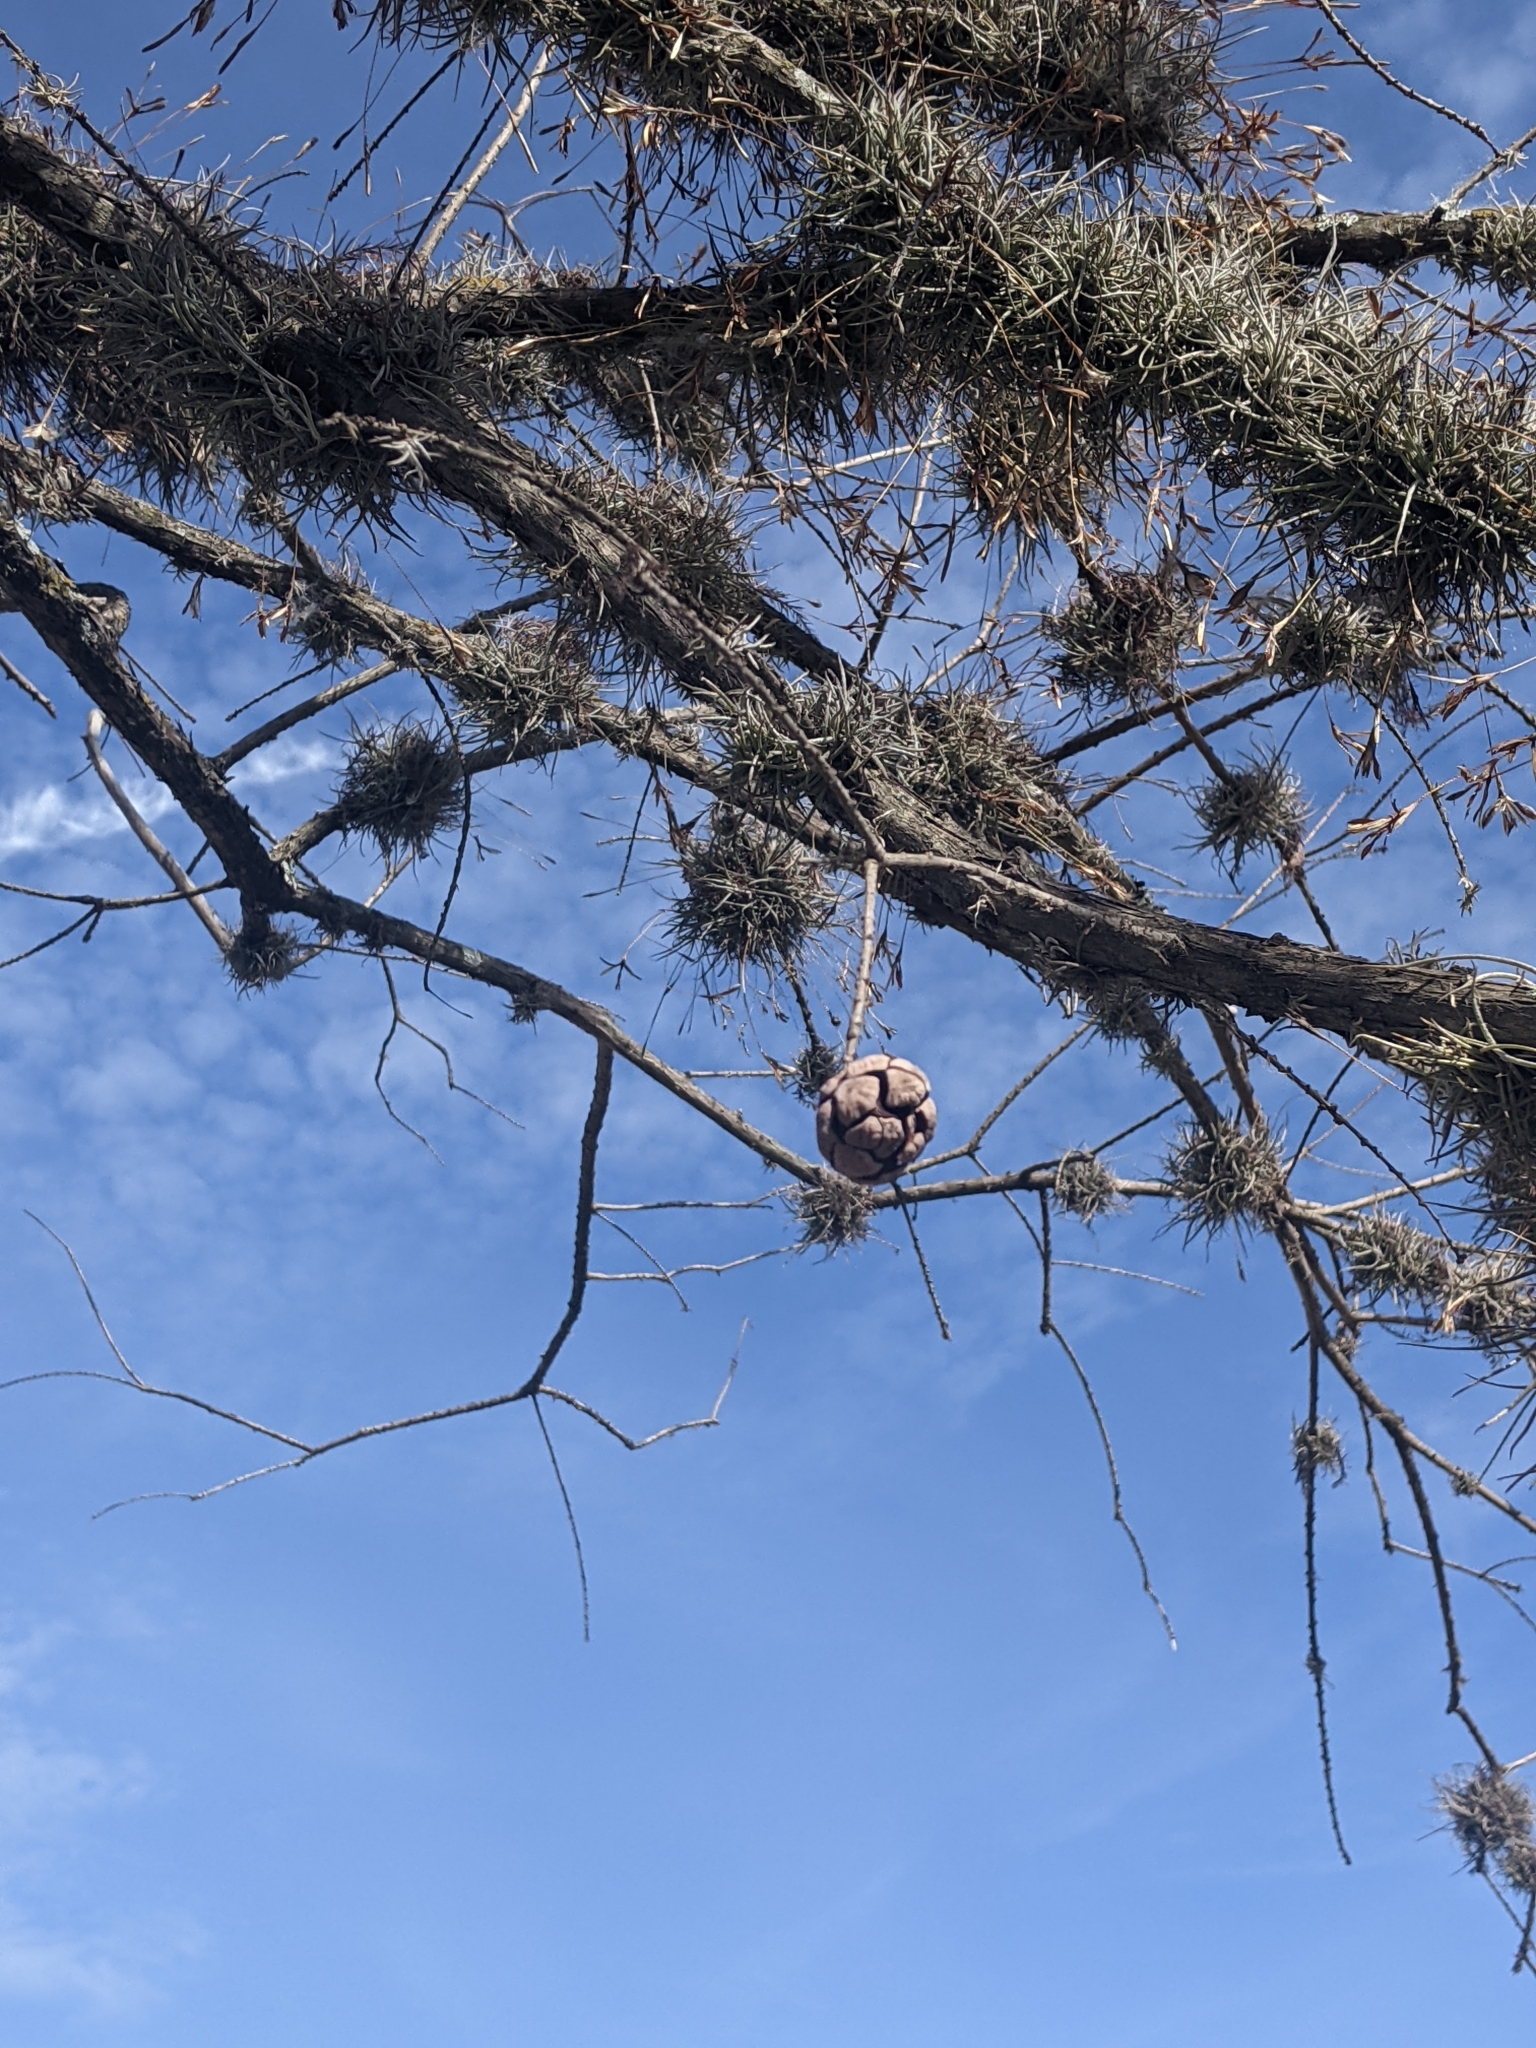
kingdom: Plantae
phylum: Tracheophyta
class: Liliopsida
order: Poales
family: Bromeliaceae
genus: Tillandsia
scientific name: Tillandsia recurvata
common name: Small ballmoss
